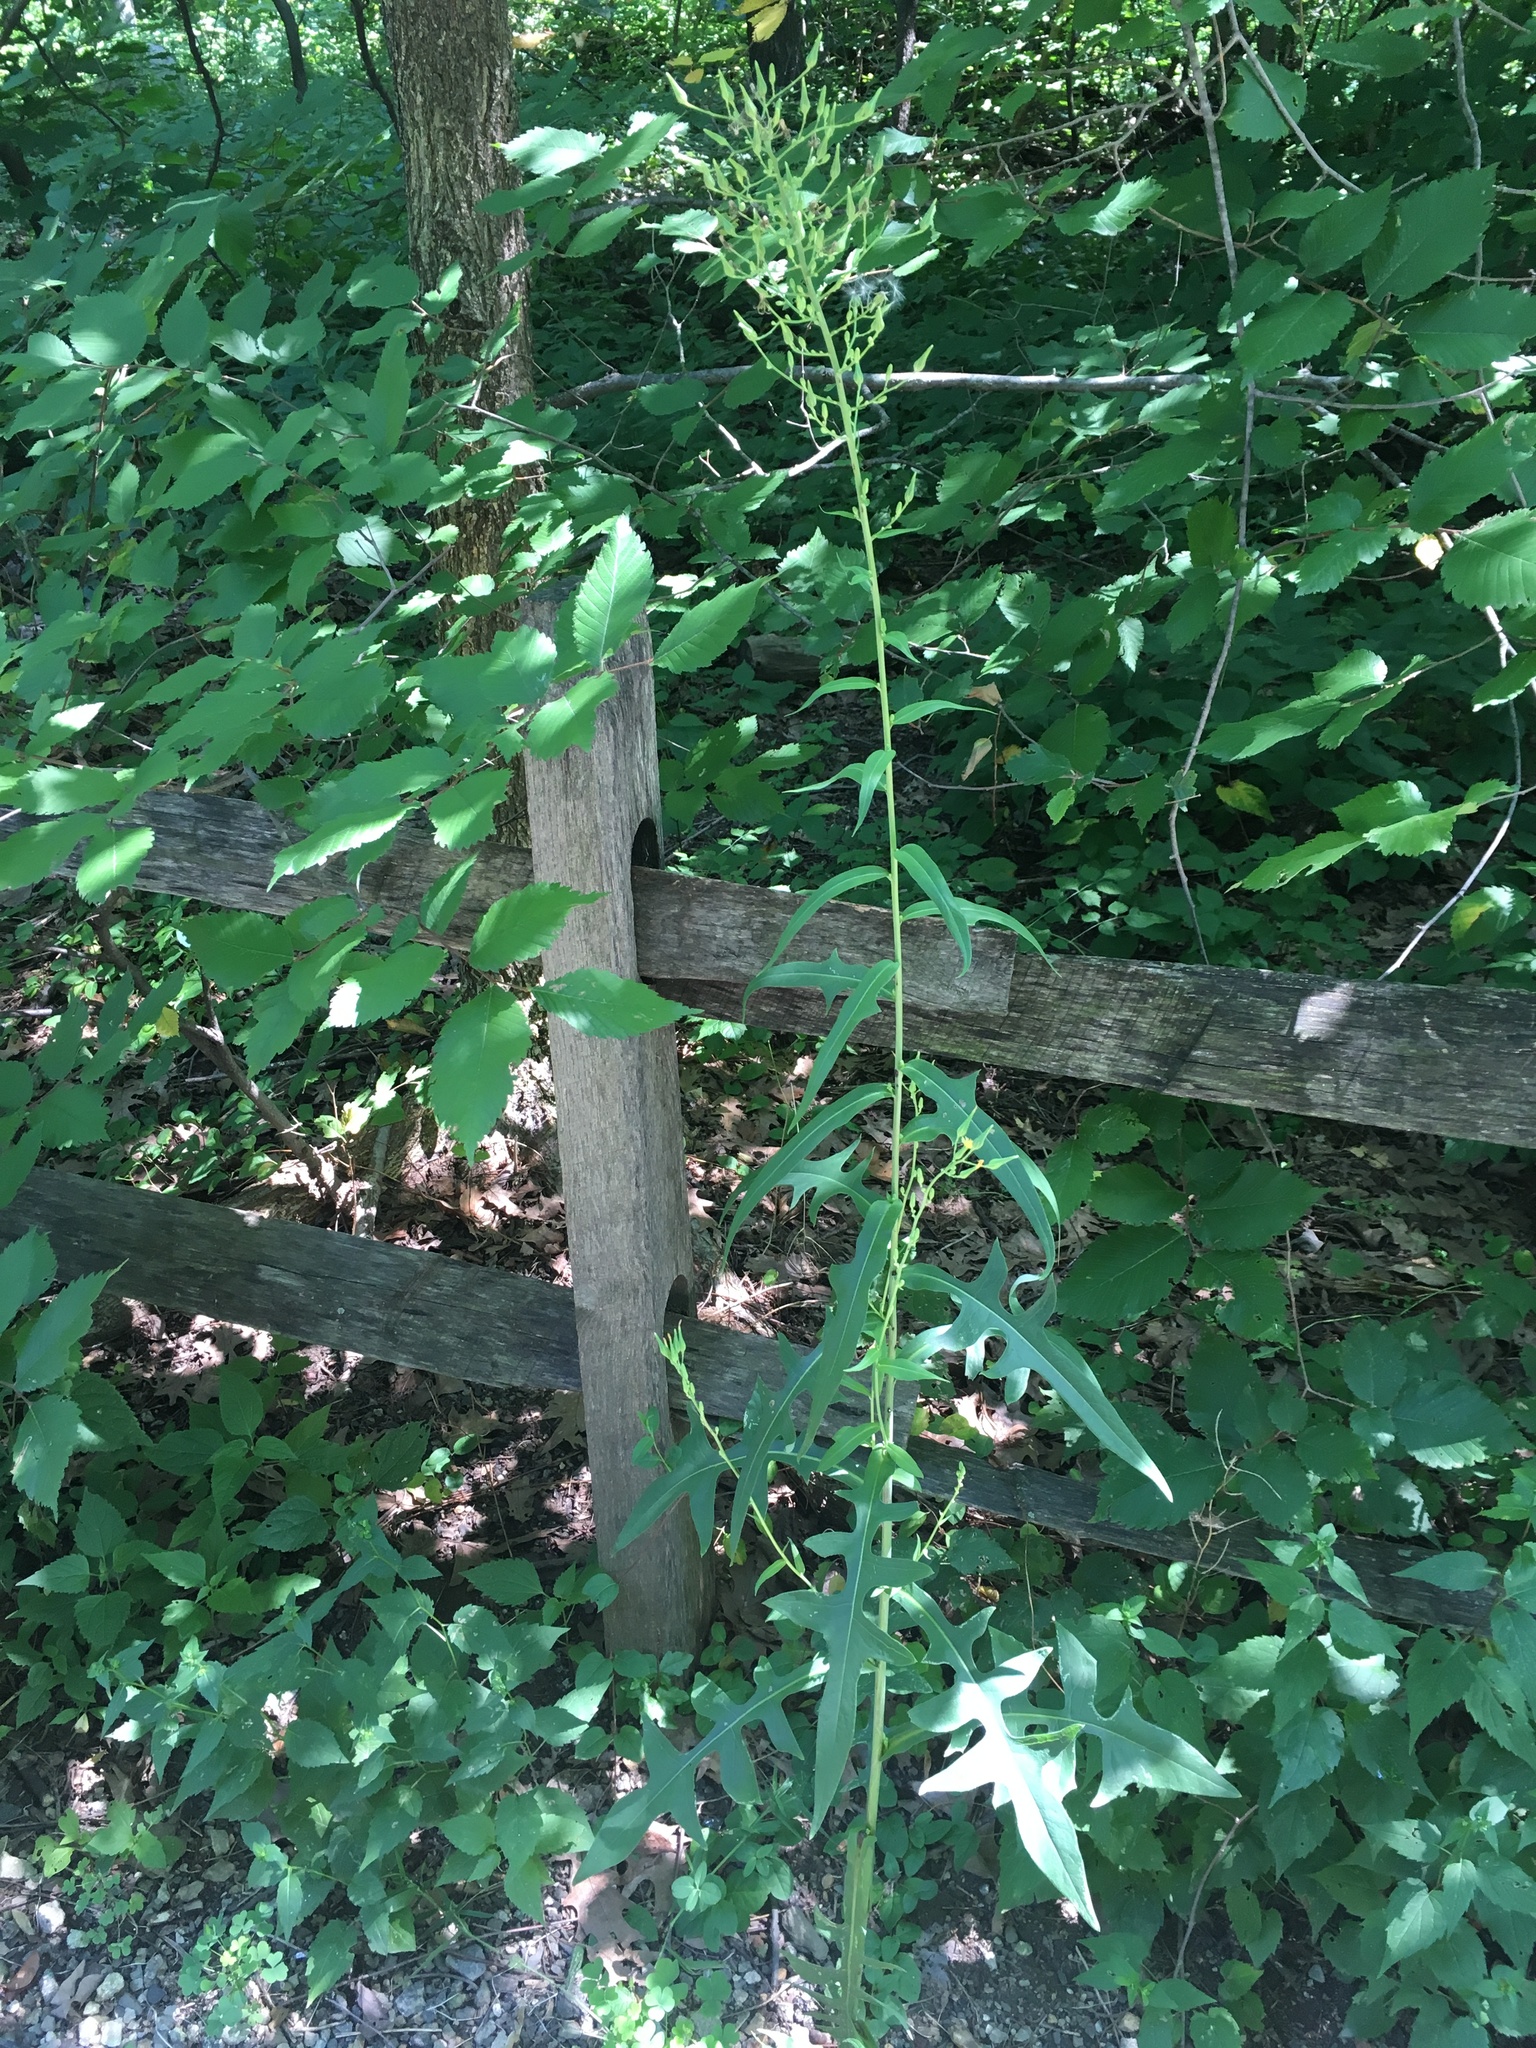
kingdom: Plantae
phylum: Tracheophyta
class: Magnoliopsida
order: Asterales
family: Asteraceae
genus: Lactuca
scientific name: Lactuca serriola
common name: Prickly lettuce
